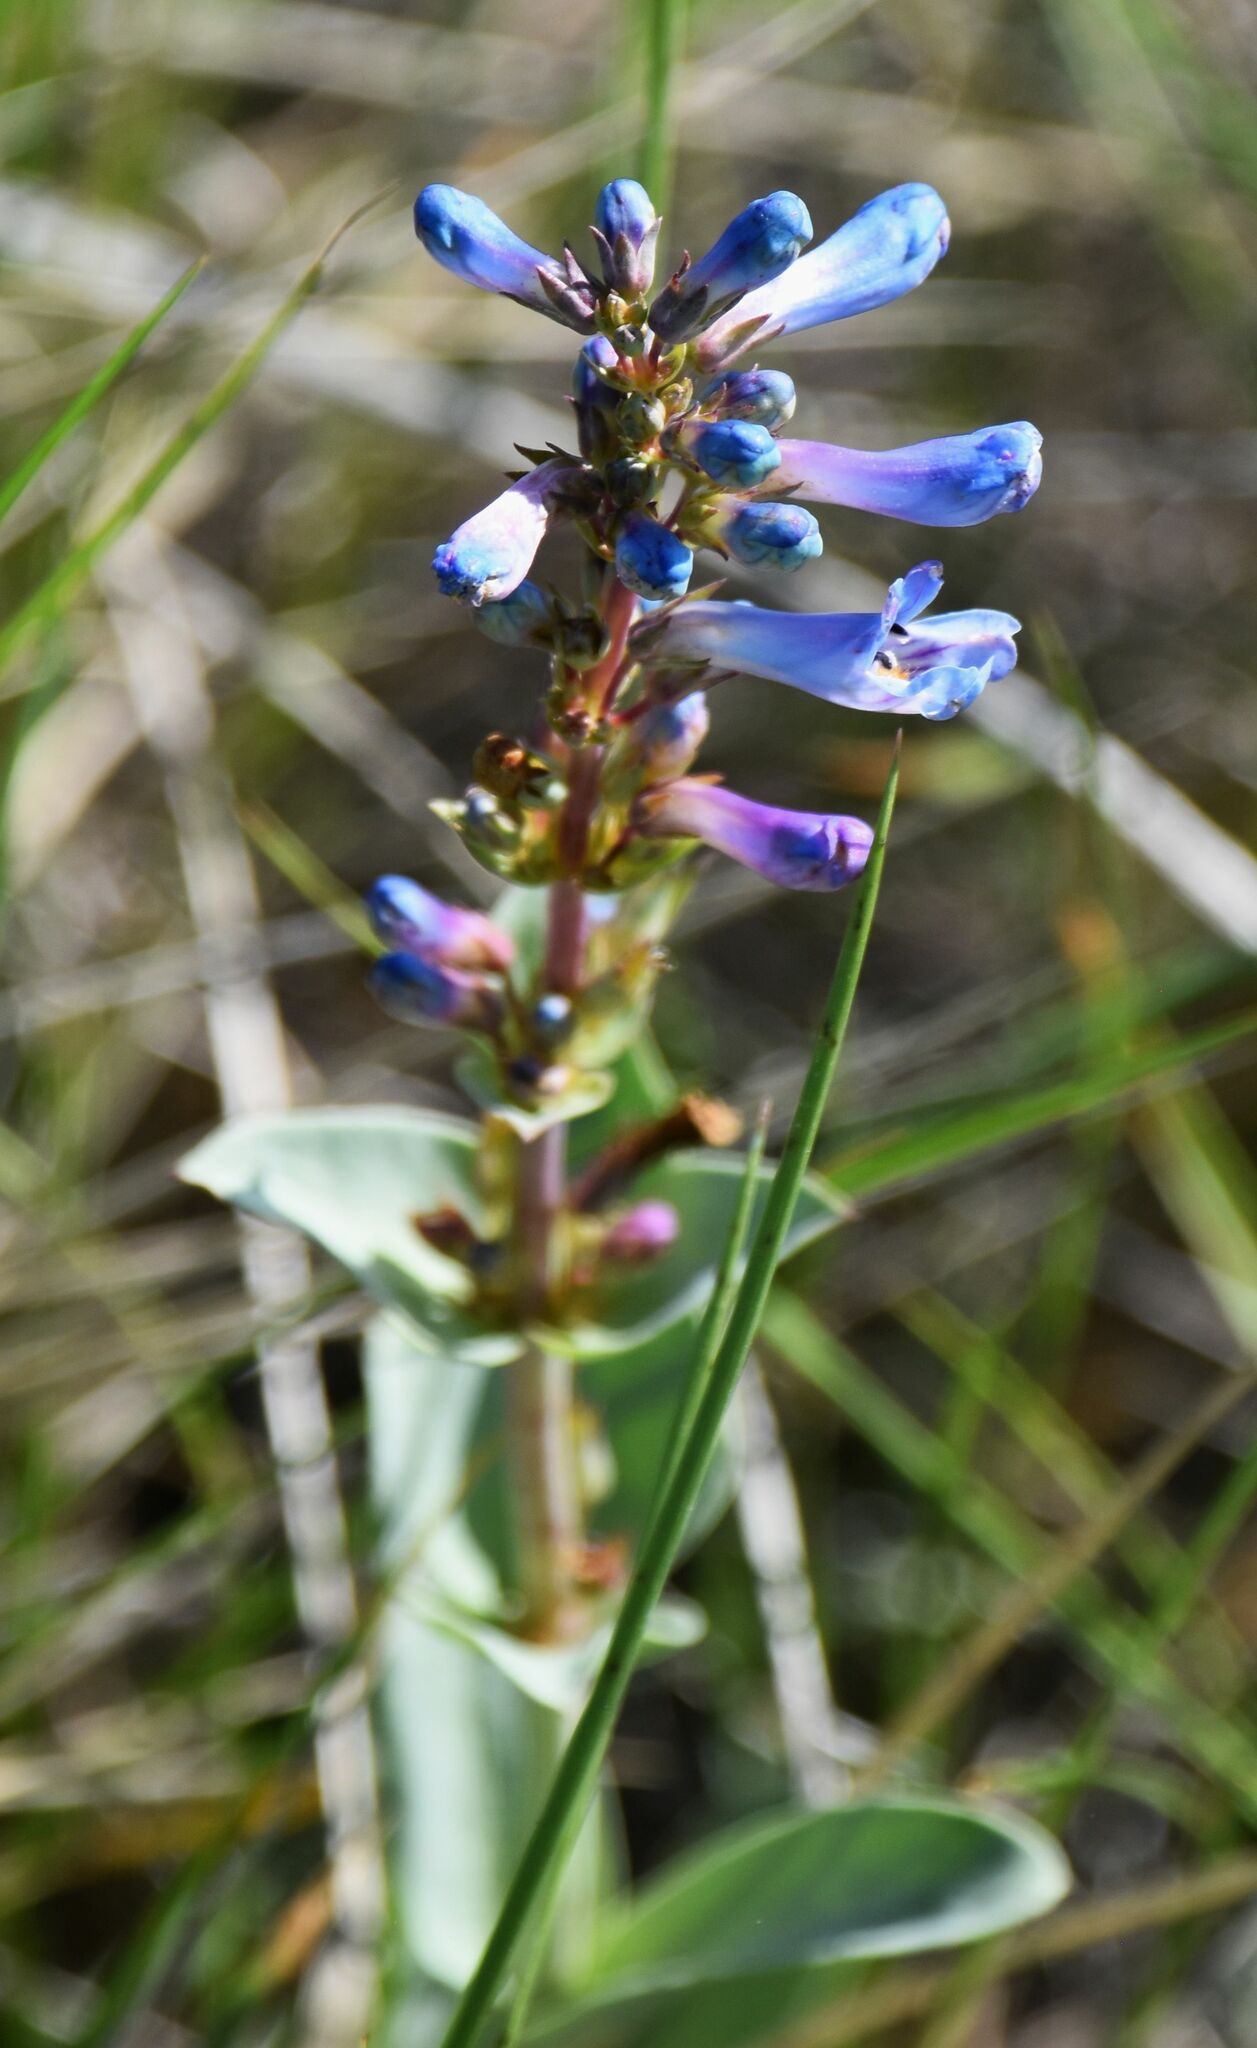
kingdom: Plantae
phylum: Tracheophyta
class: Magnoliopsida
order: Lamiales
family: Plantaginaceae
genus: Penstemon
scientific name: Penstemon nitidus
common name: Shining penstemon
